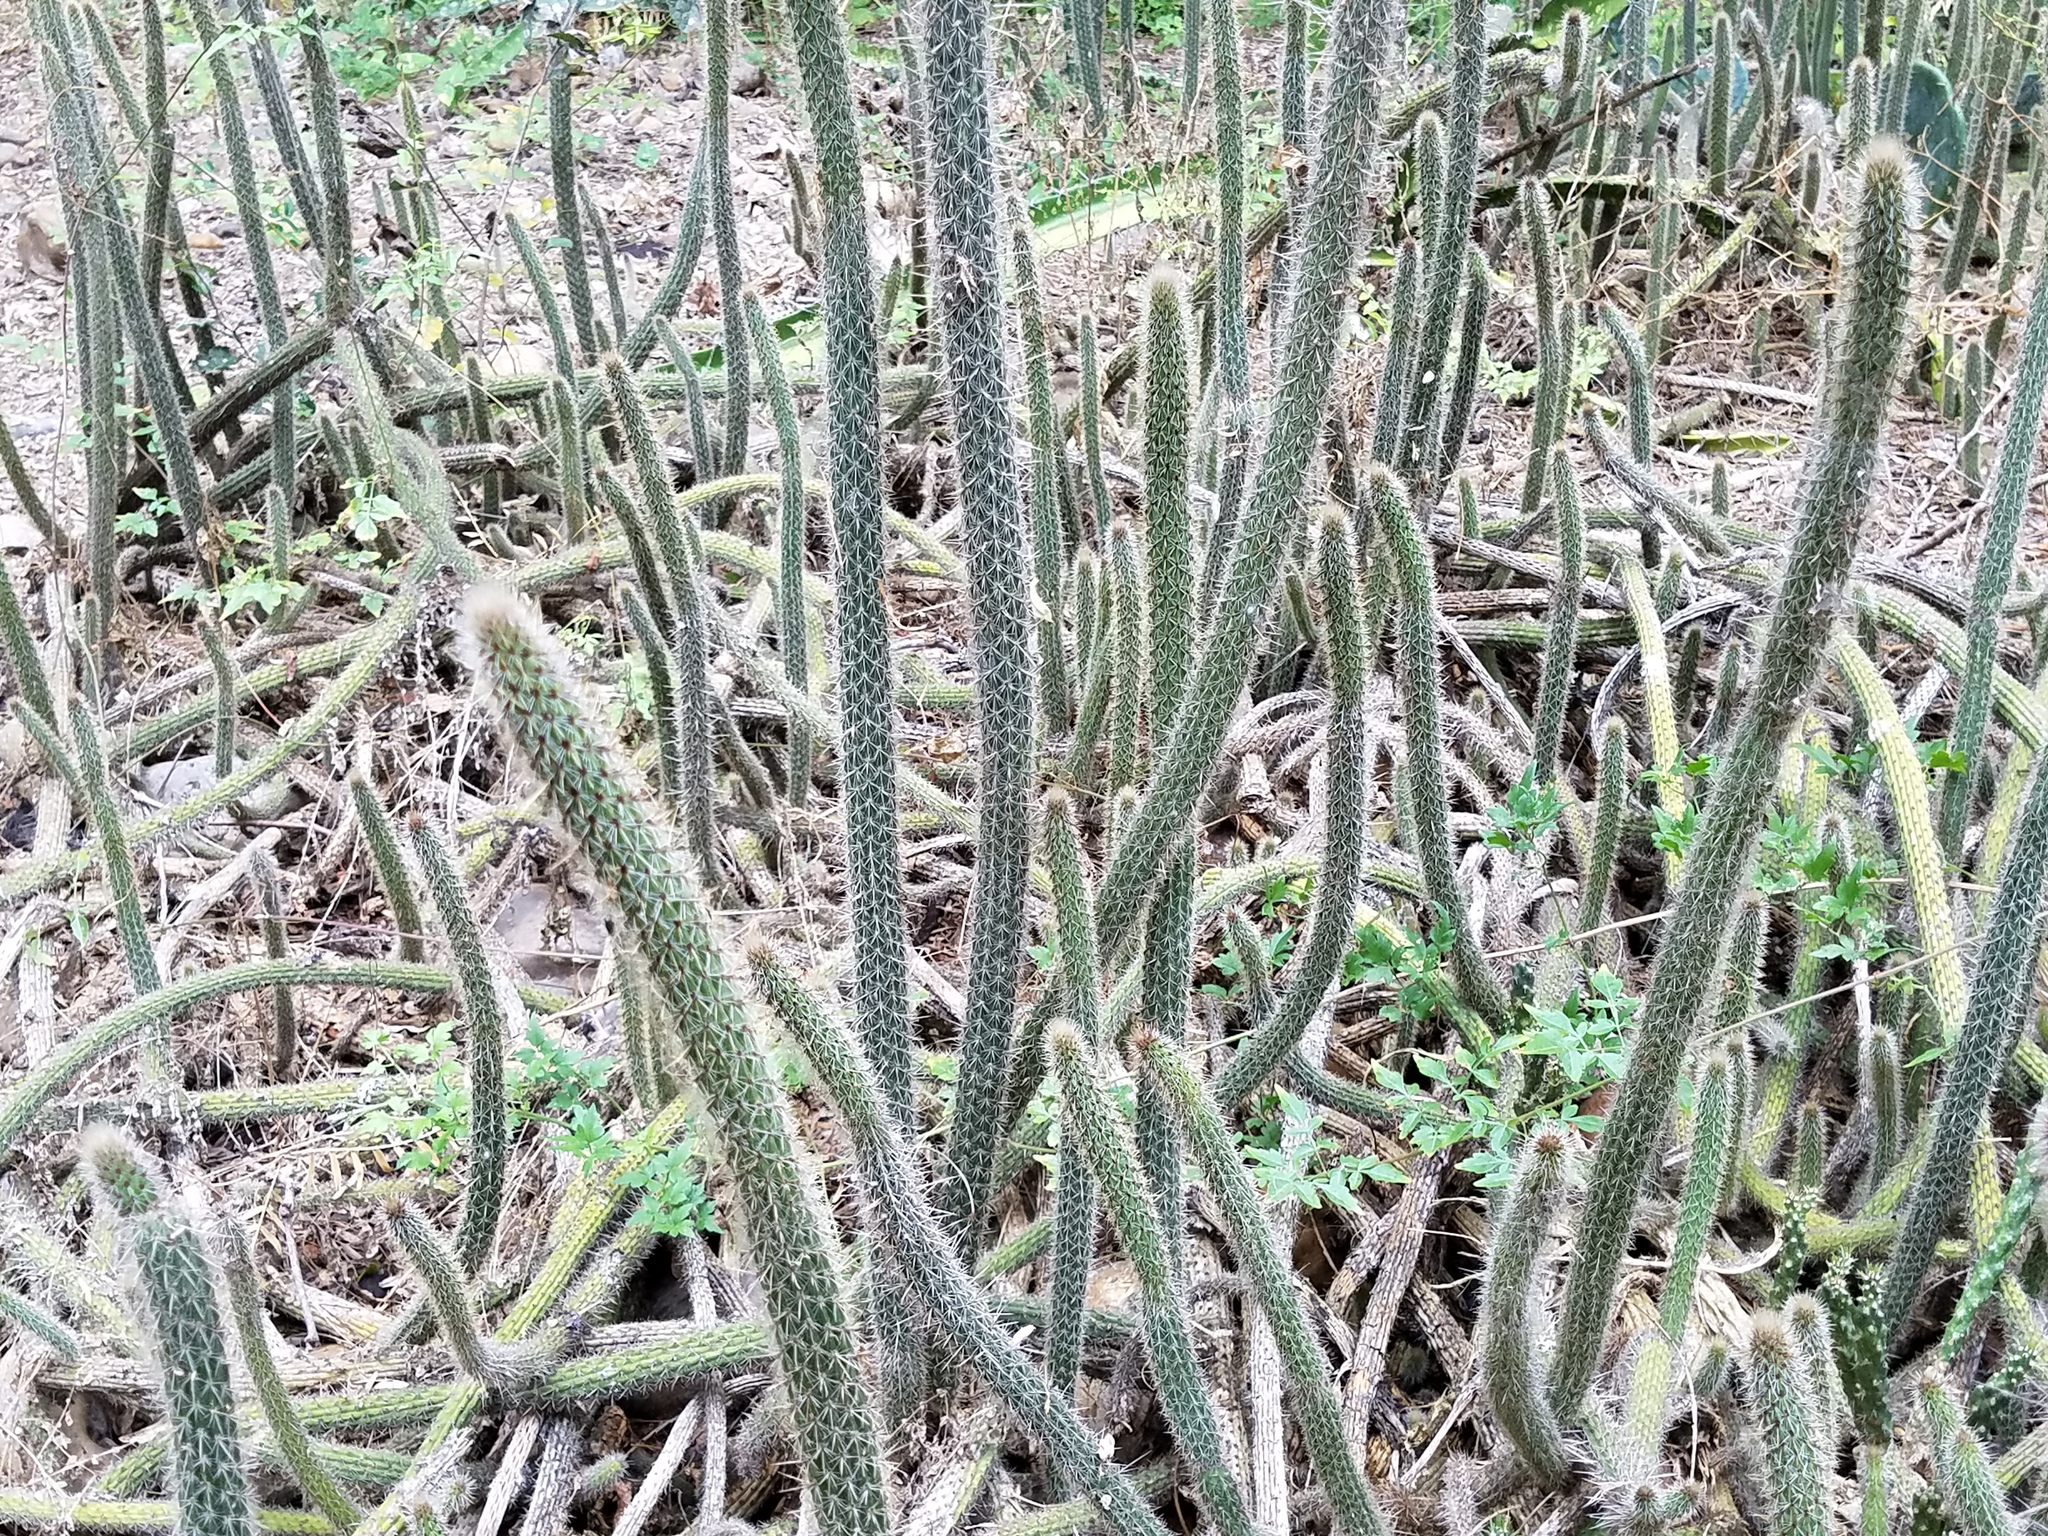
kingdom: Plantae
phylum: Tracheophyta
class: Magnoliopsida
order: Caryophyllales
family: Cactaceae
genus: Peniocereus
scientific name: Peniocereus serpentinus
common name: Serpent cactus
